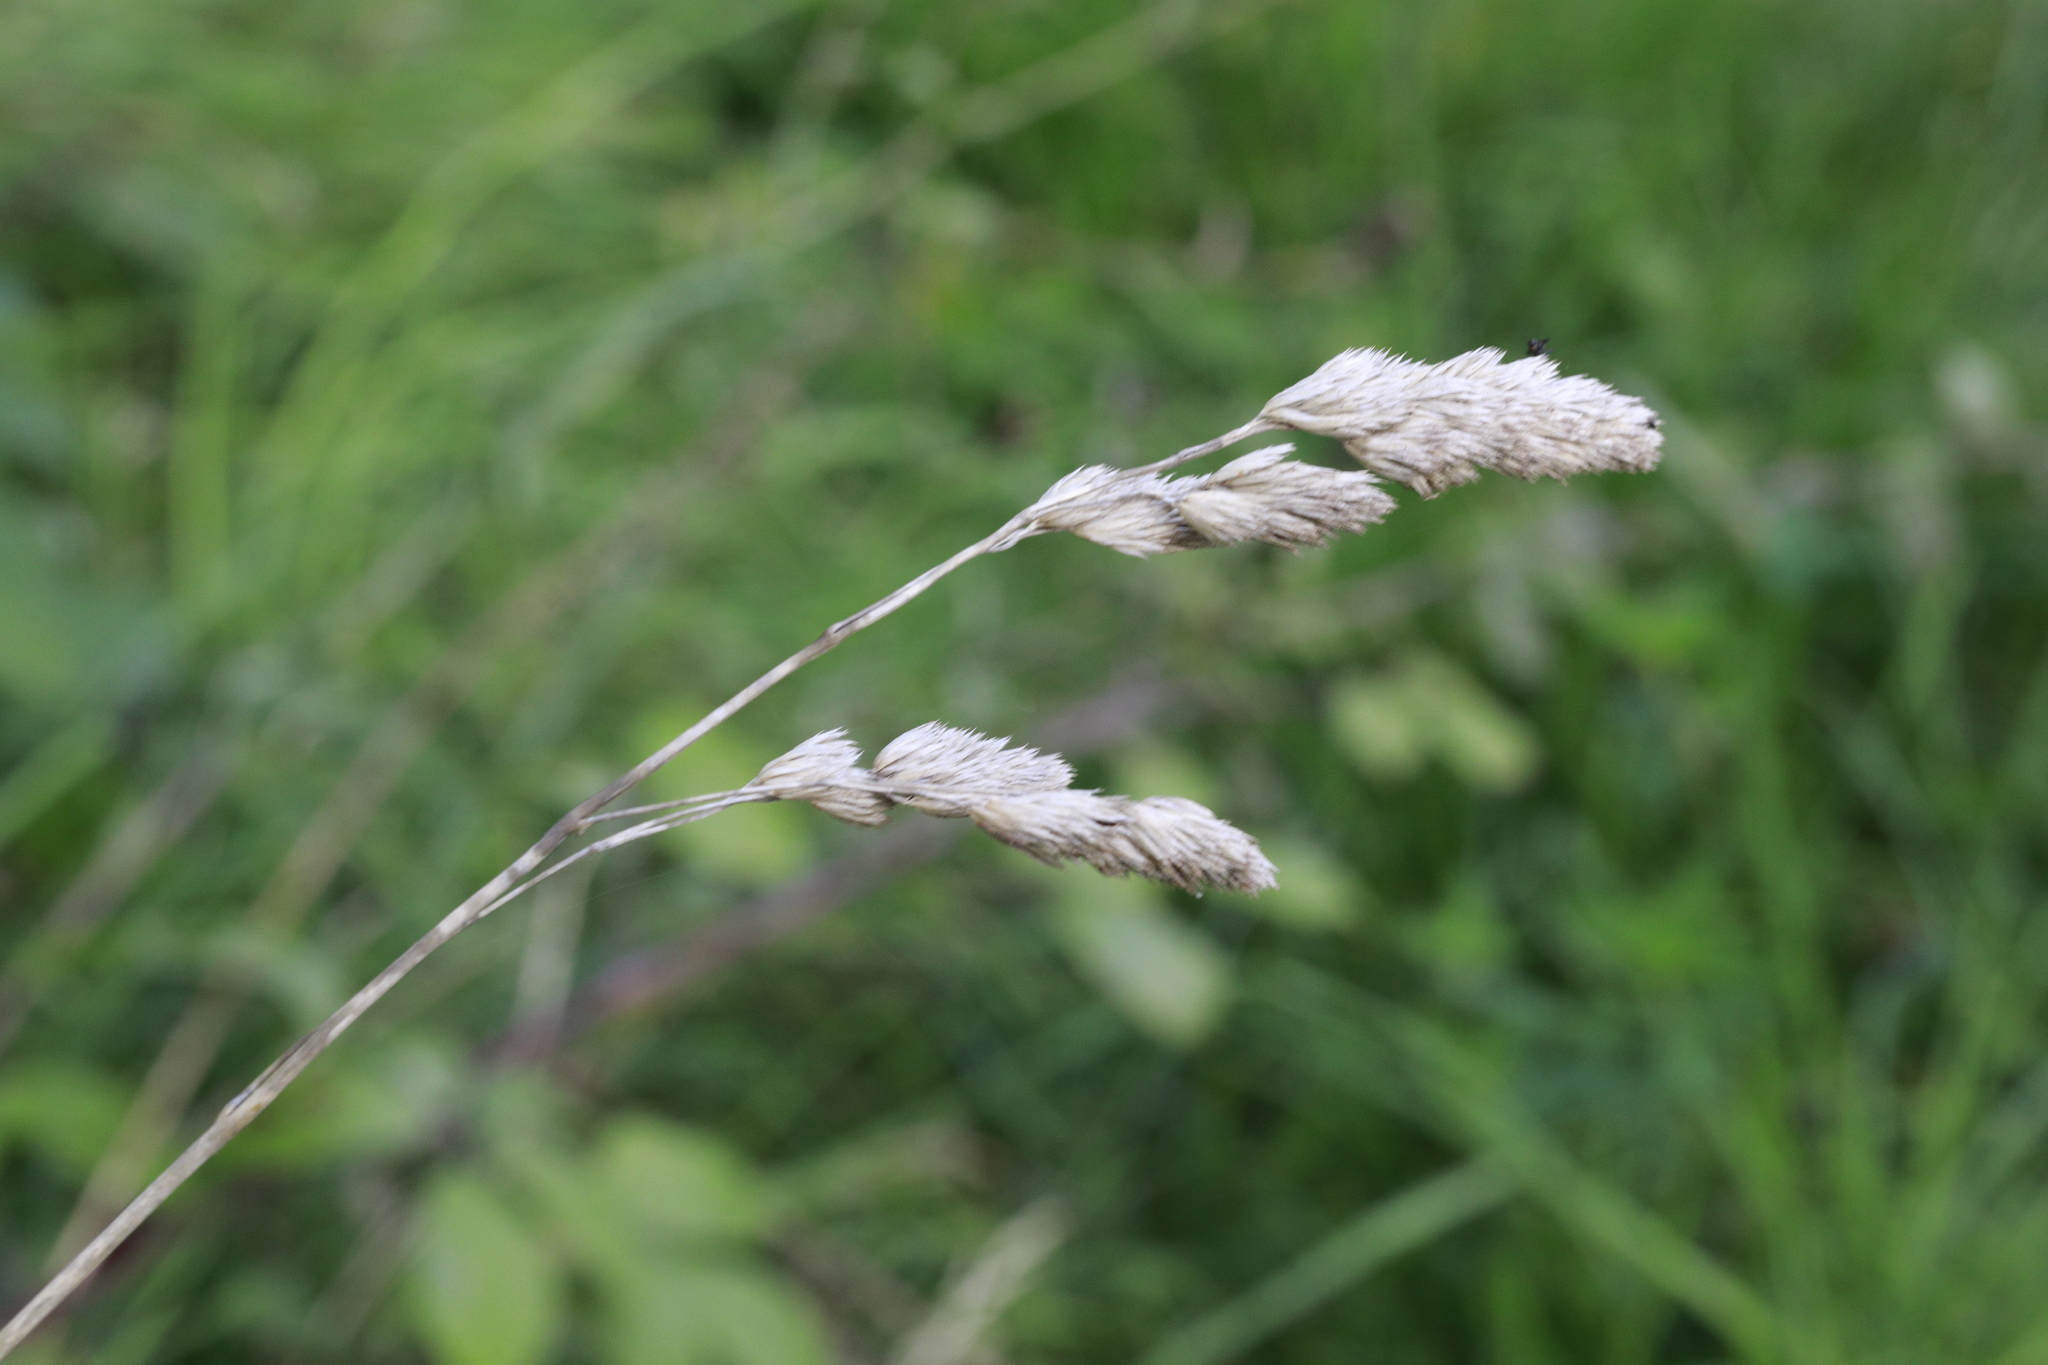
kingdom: Plantae
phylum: Tracheophyta
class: Liliopsida
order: Poales
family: Poaceae
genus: Dactylis
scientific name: Dactylis glomerata
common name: Orchardgrass
